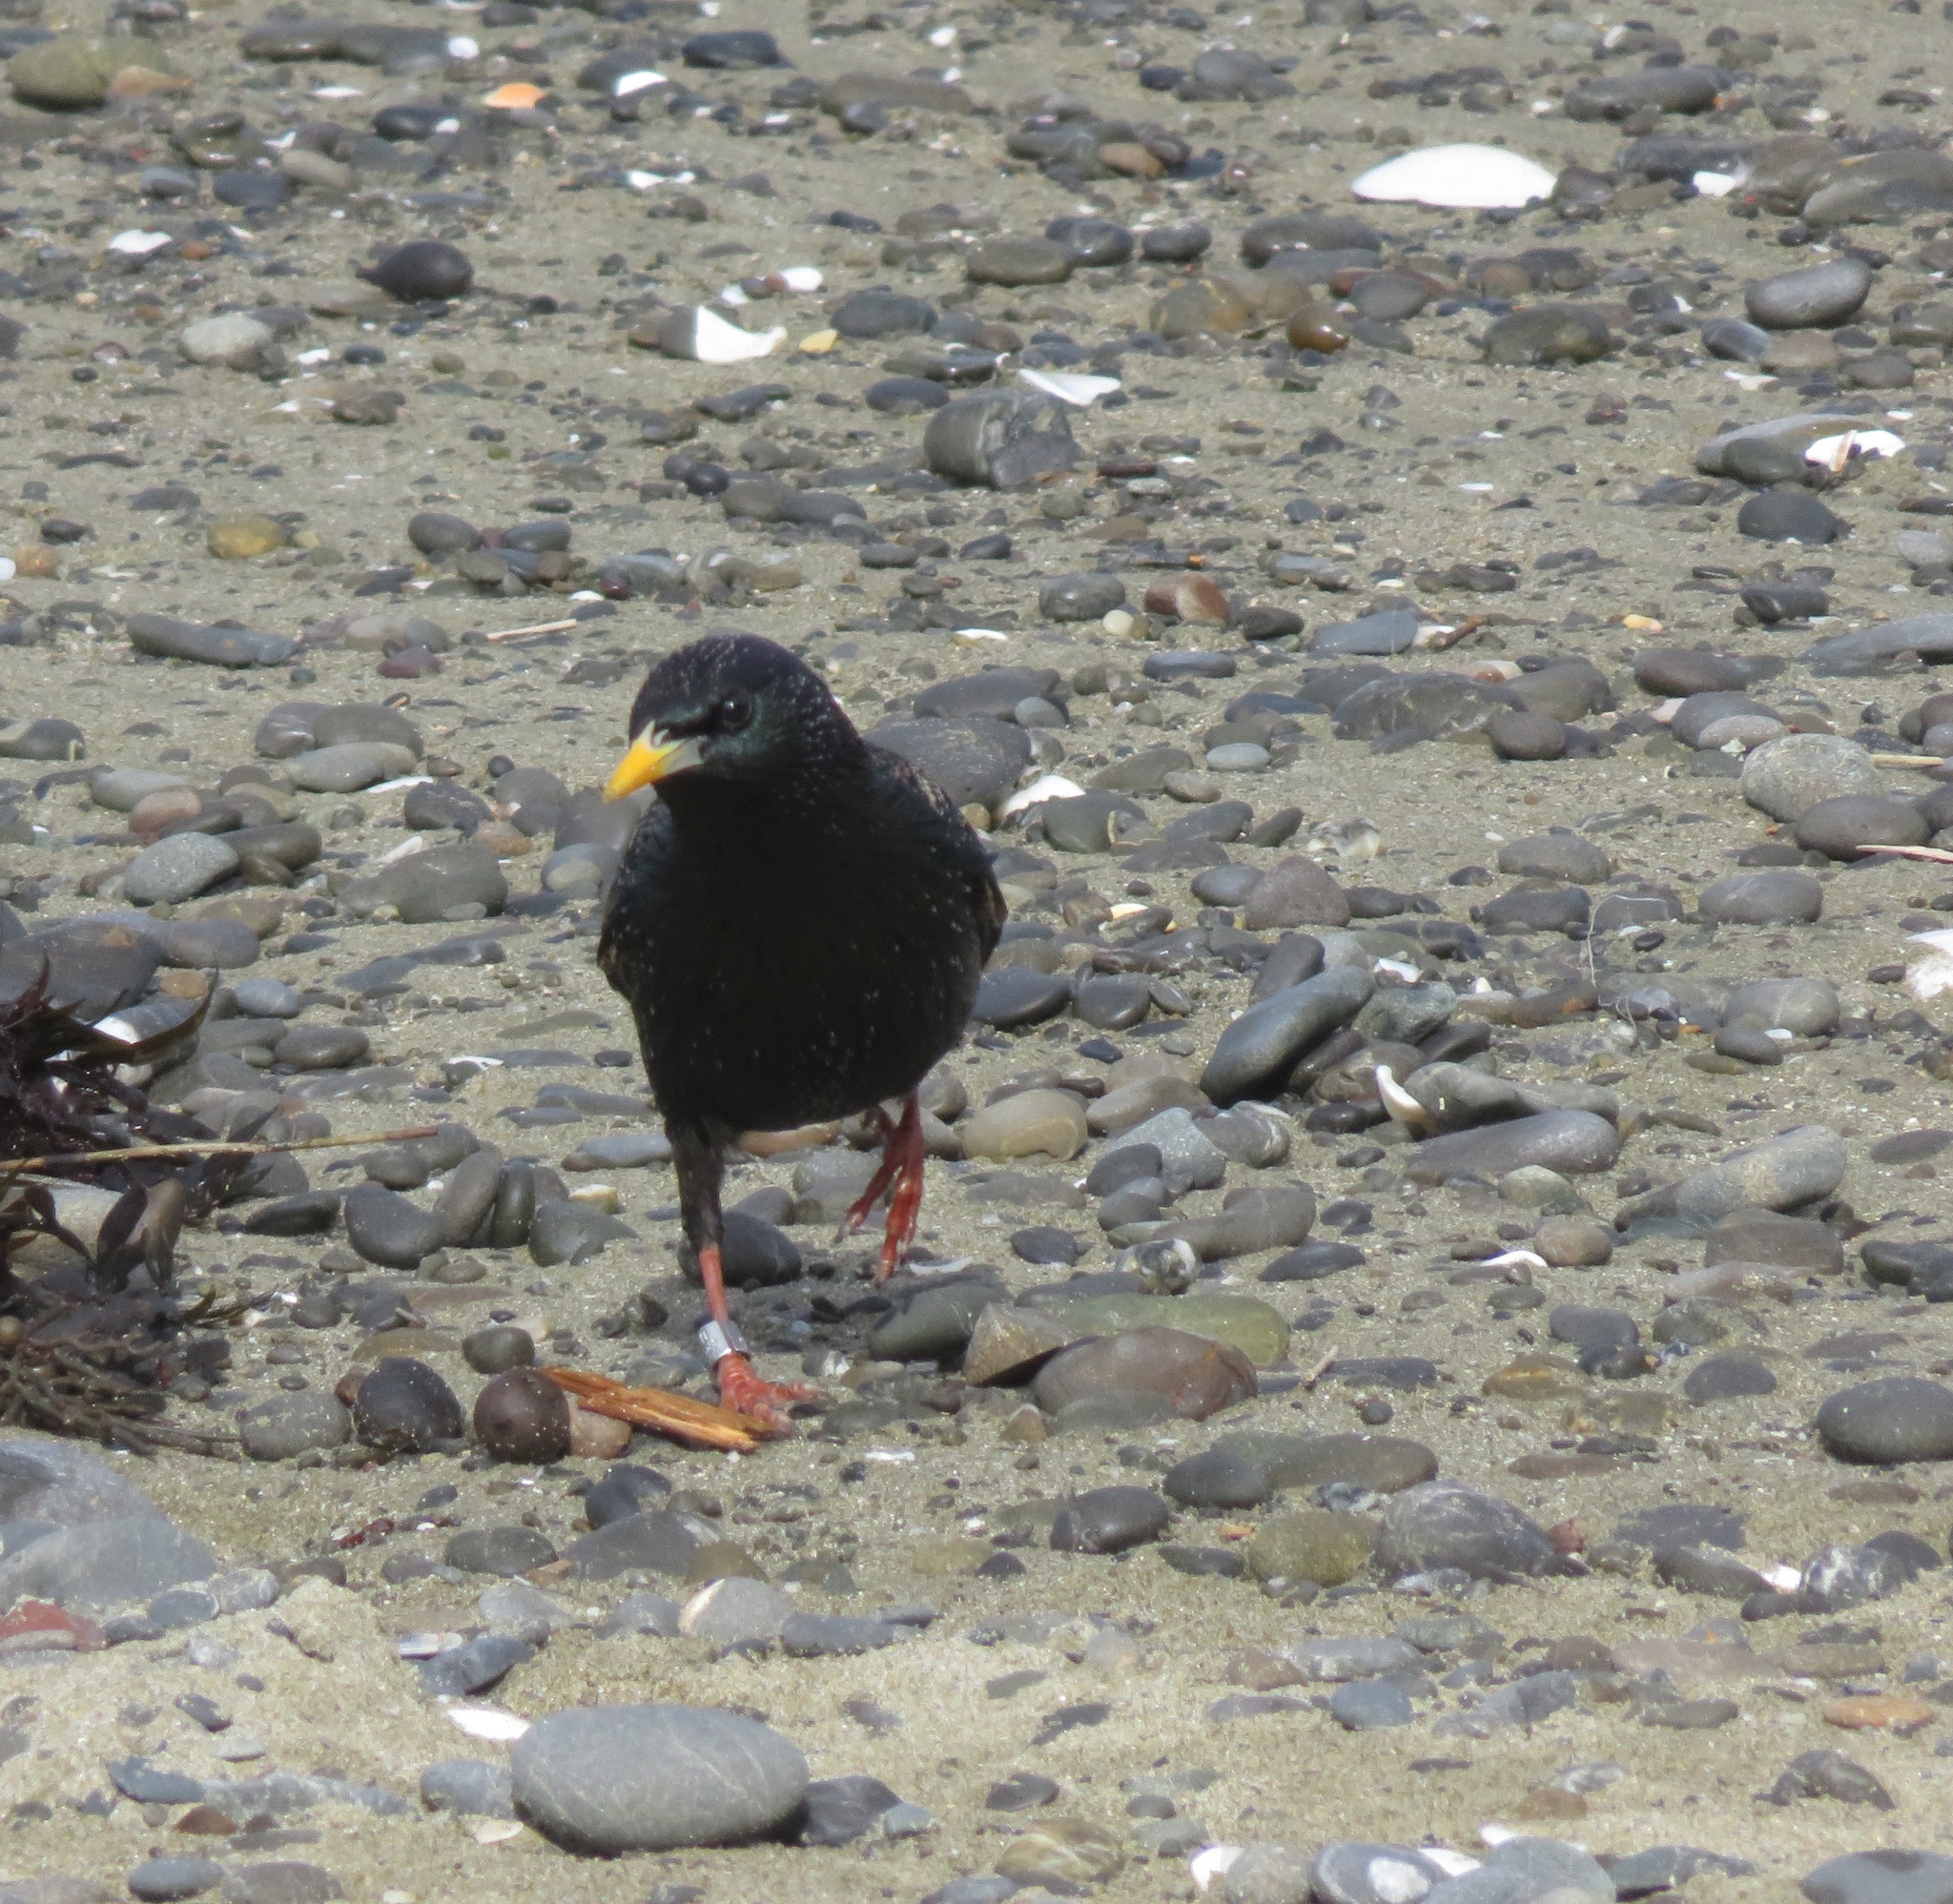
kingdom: Animalia
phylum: Chordata
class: Aves
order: Passeriformes
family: Sturnidae
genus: Sturnus
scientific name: Sturnus vulgaris
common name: Common starling
